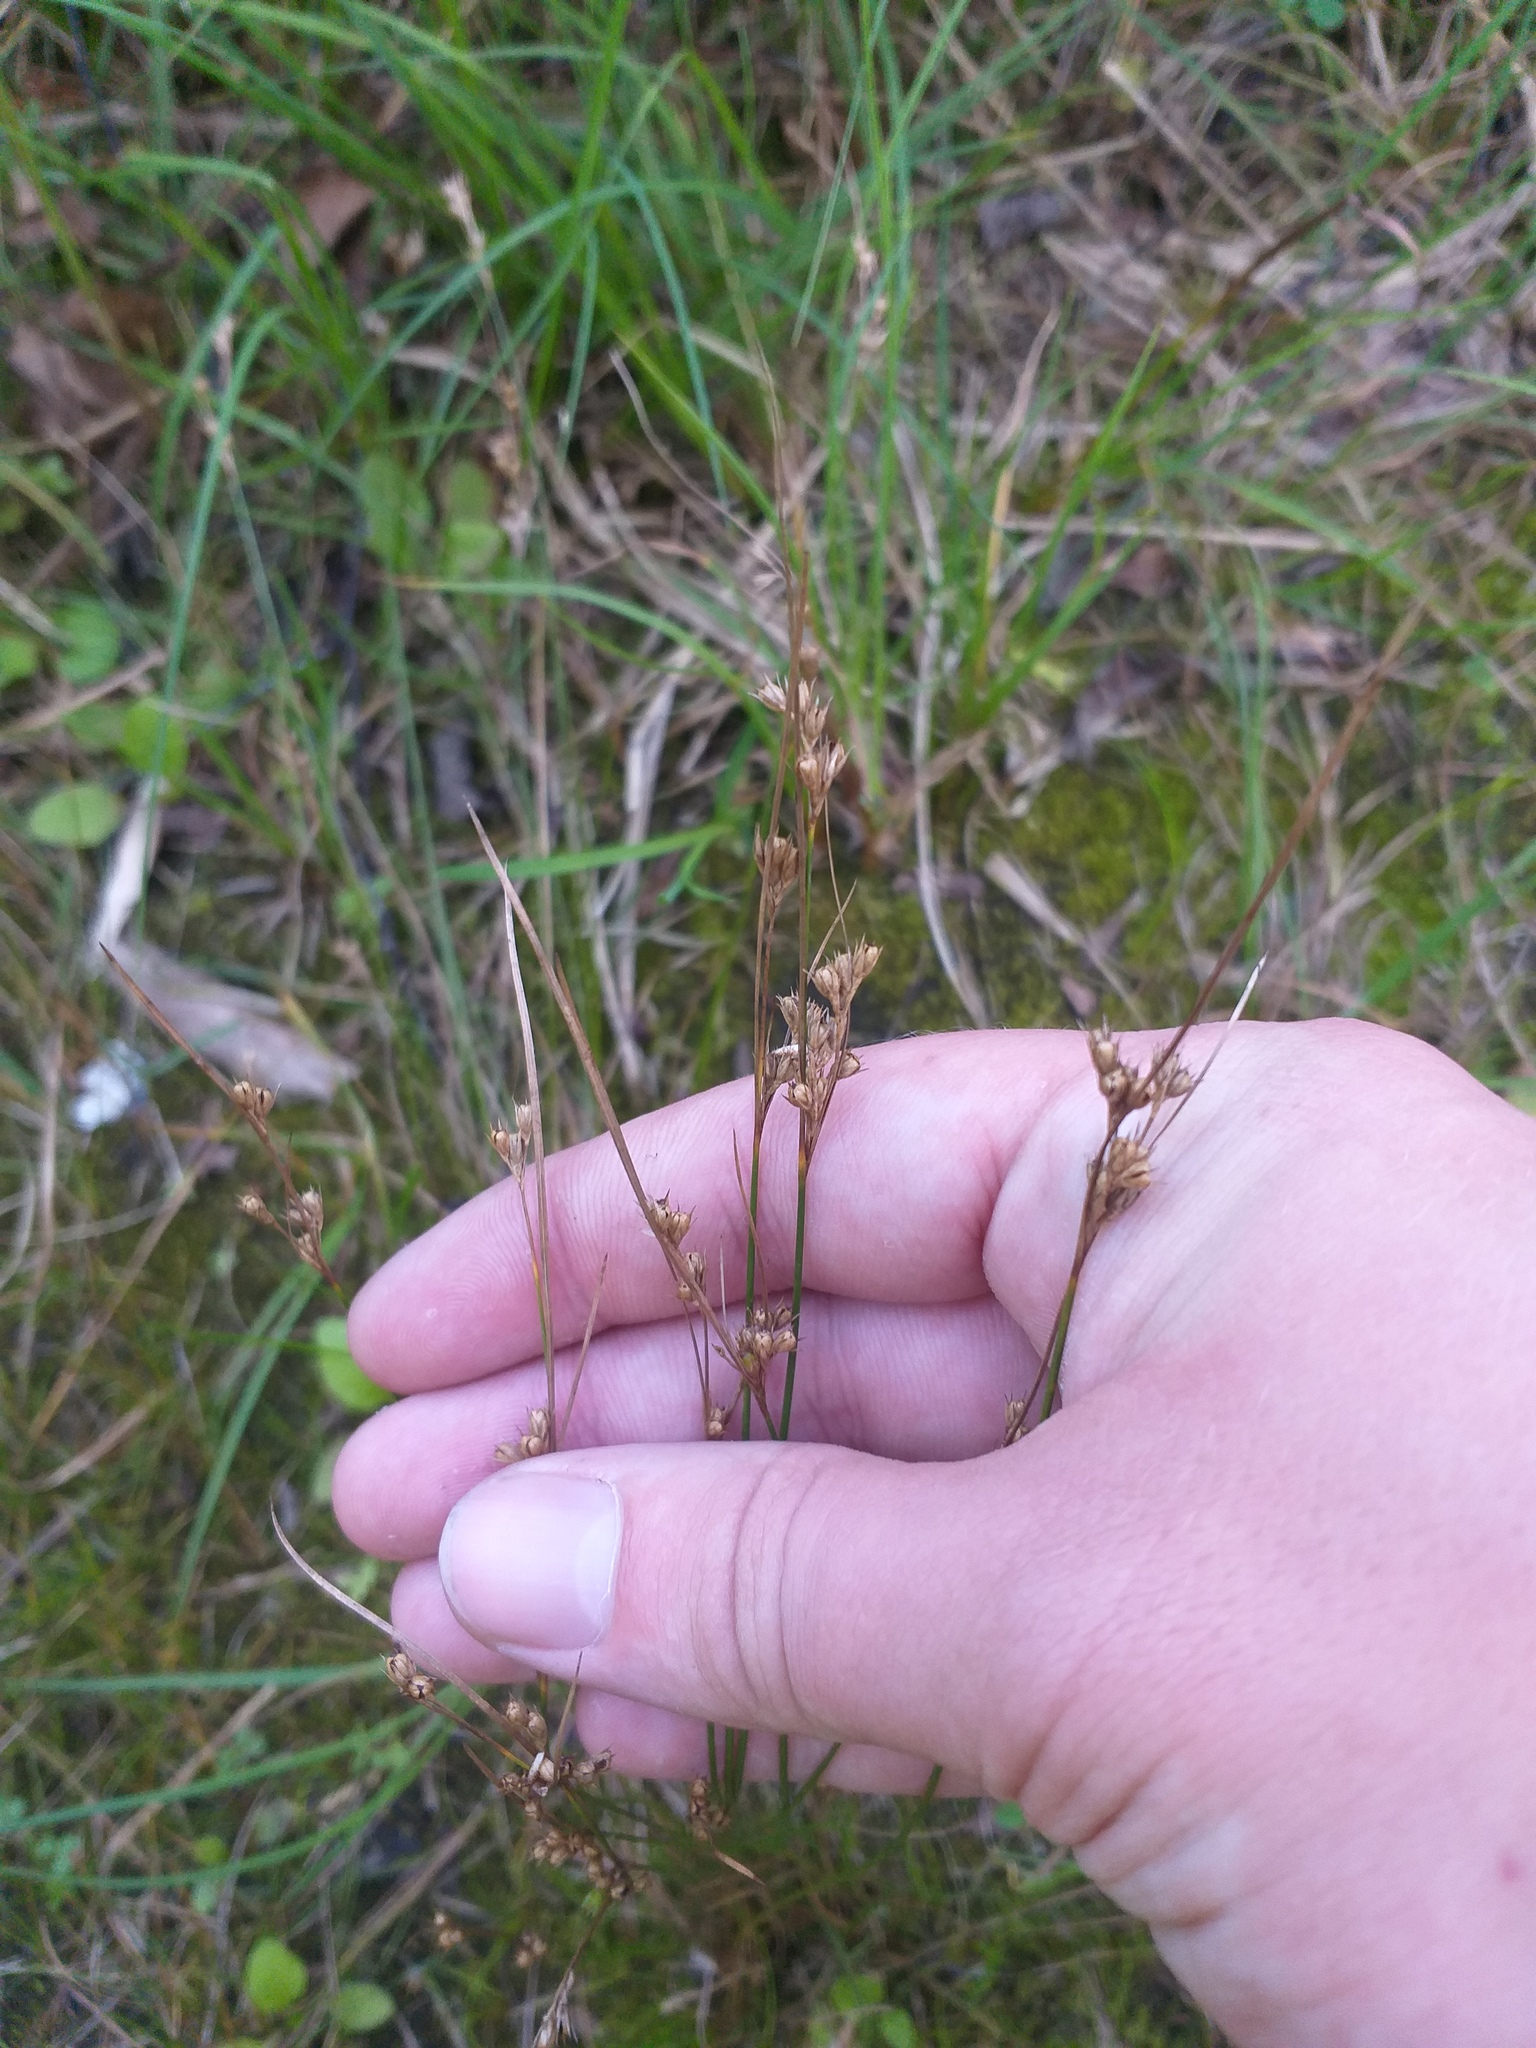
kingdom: Plantae
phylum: Tracheophyta
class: Liliopsida
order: Poales
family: Juncaceae
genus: Juncus
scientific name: Juncus tenuis
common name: Slender rush
